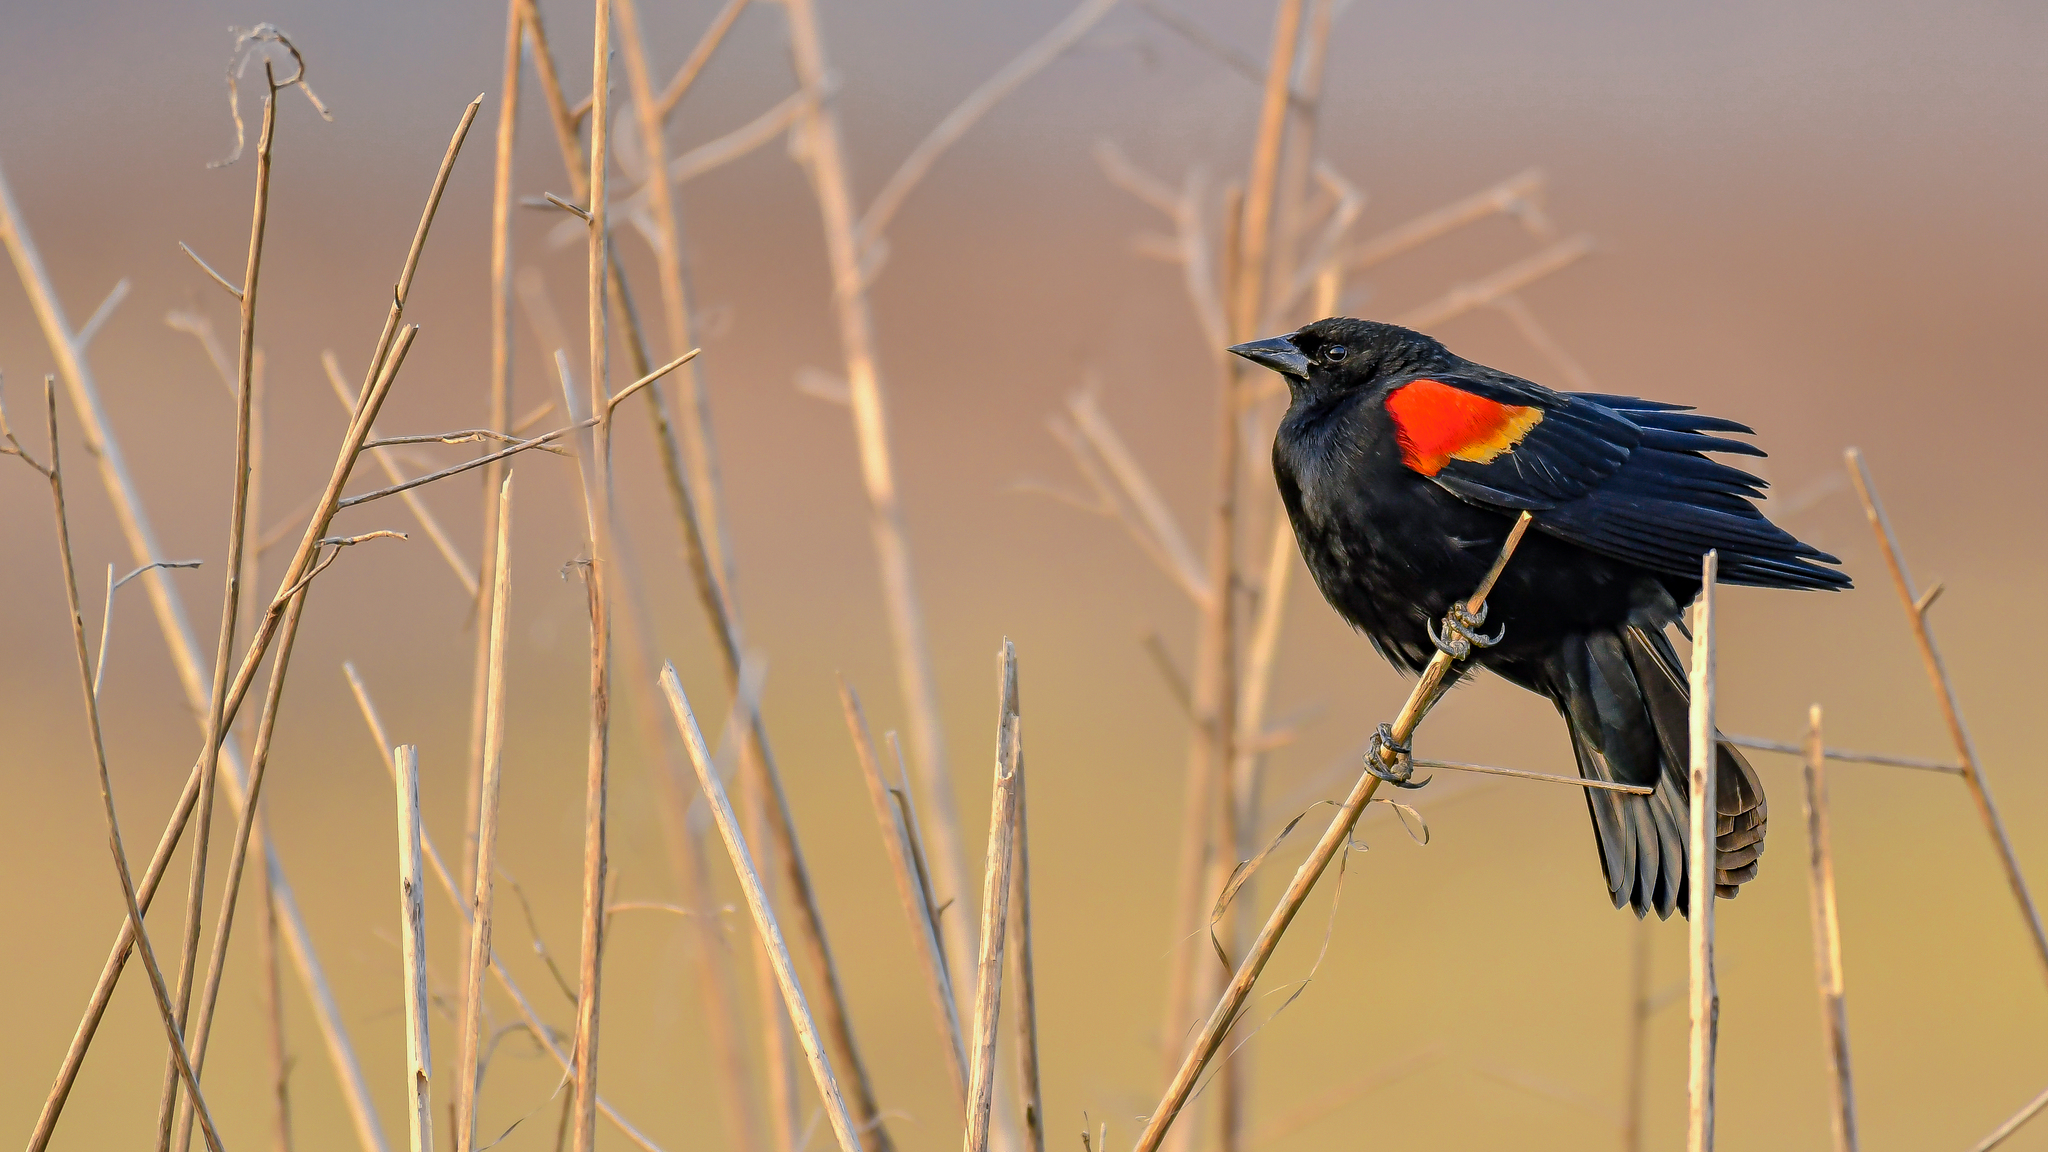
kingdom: Animalia
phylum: Chordata
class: Aves
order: Passeriformes
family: Icteridae
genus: Agelaius
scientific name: Agelaius phoeniceus
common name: Red-winged blackbird
